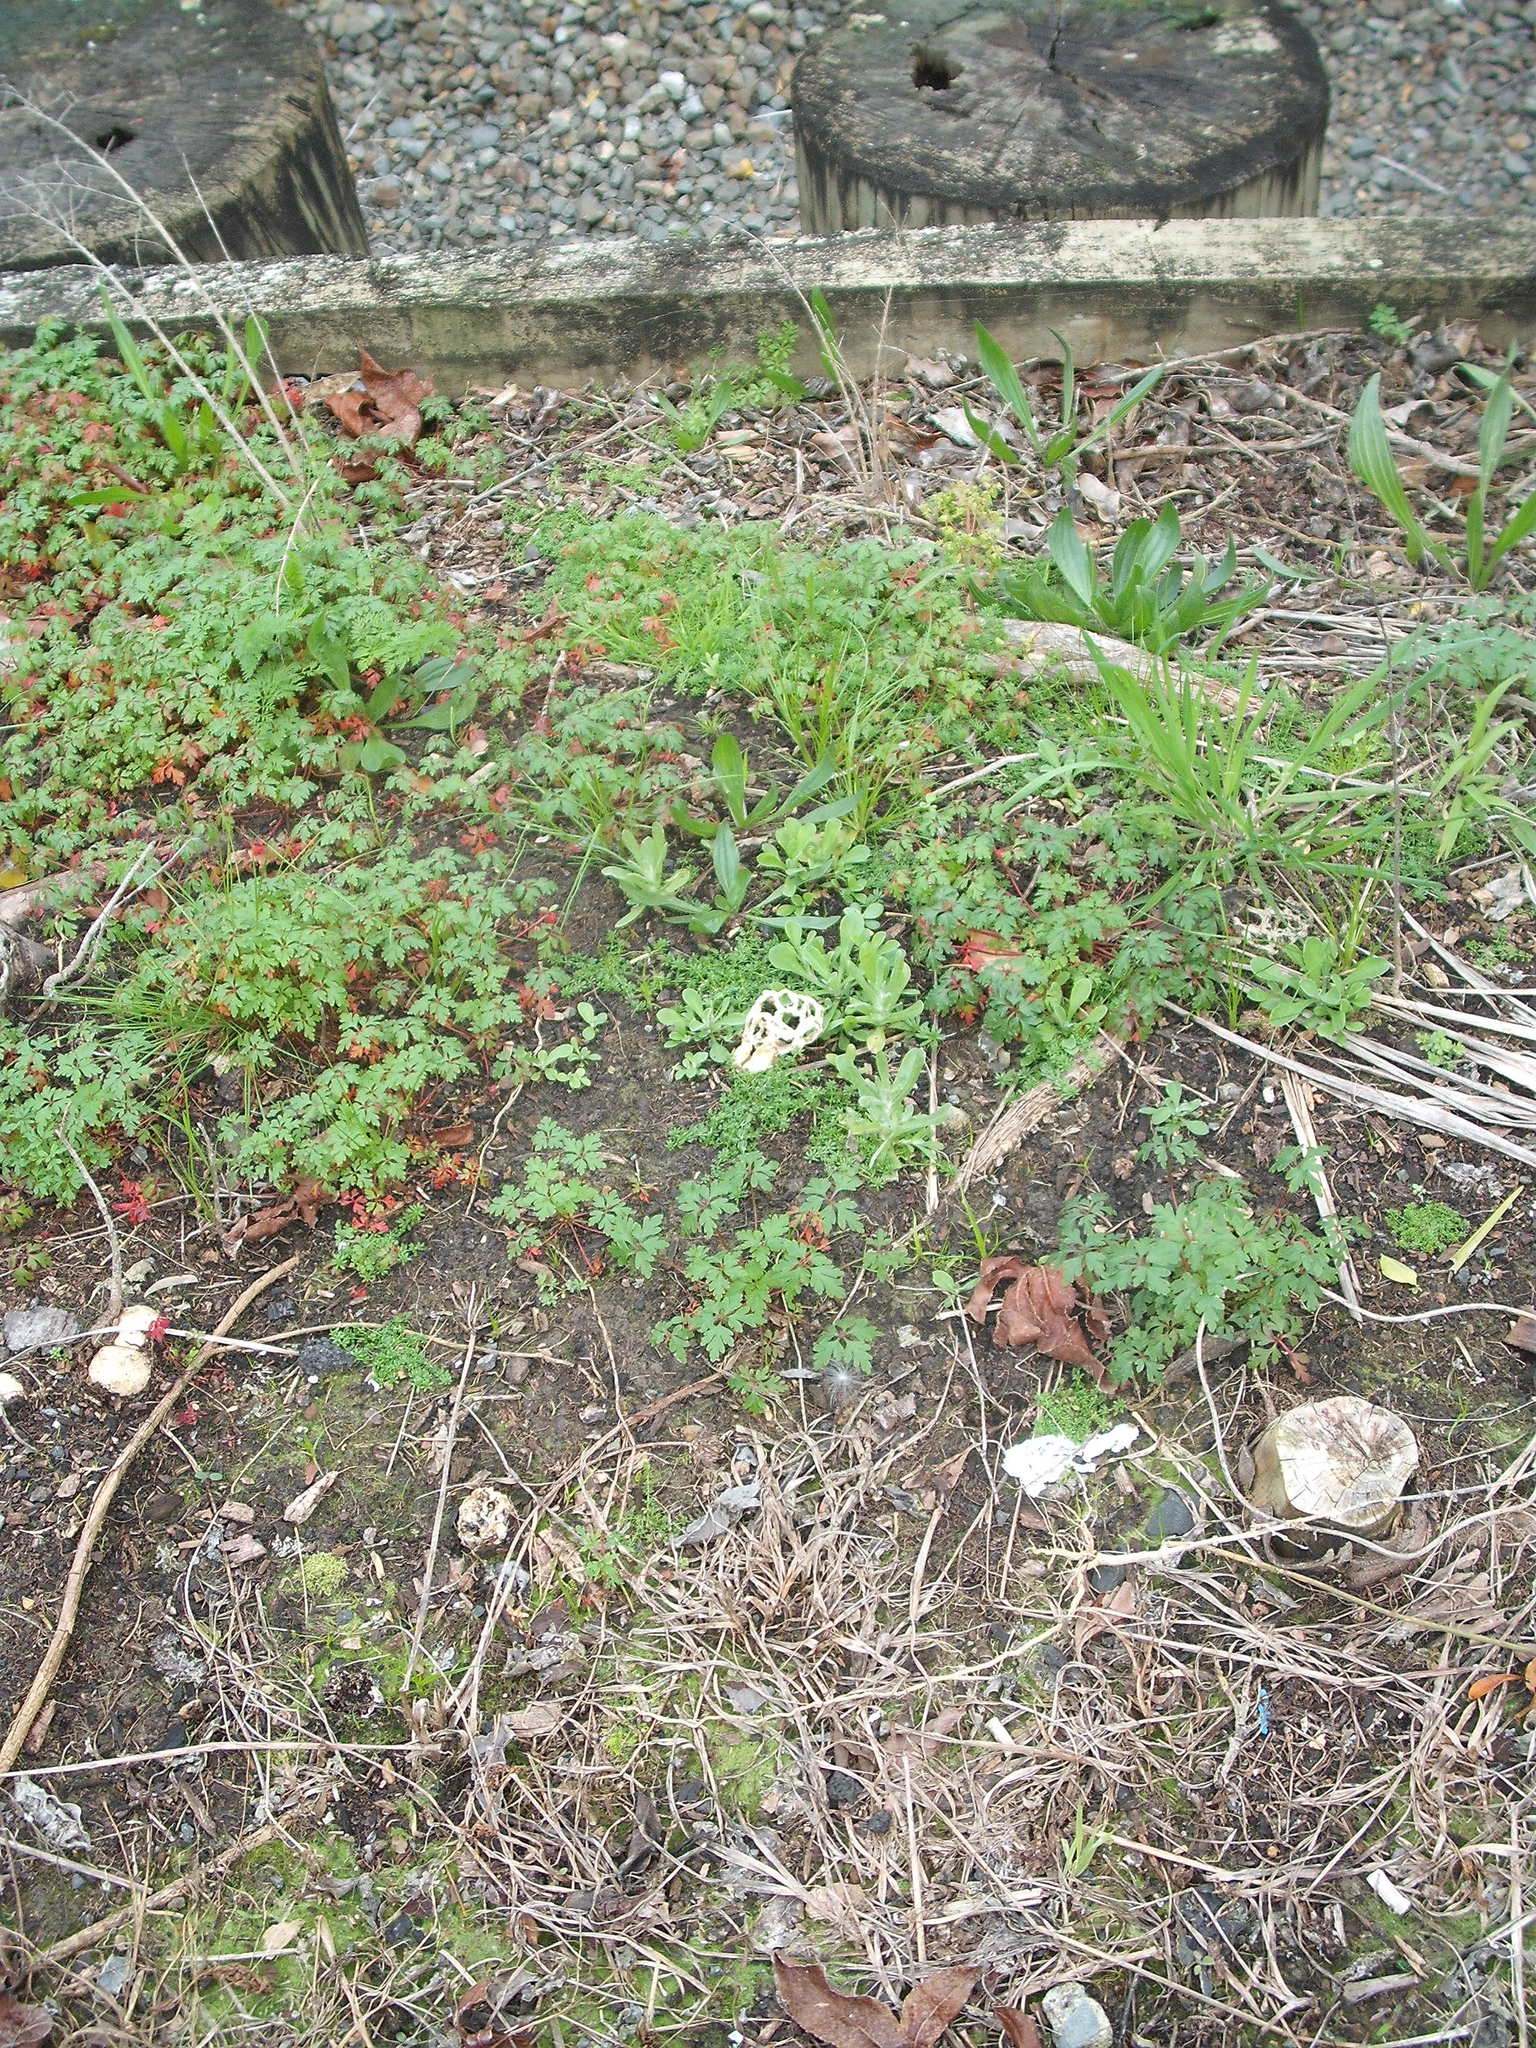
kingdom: Fungi
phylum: Basidiomycota
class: Agaricomycetes
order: Phallales
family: Phallaceae
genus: Ileodictyon
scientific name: Ileodictyon cibarium
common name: Basket fungus
